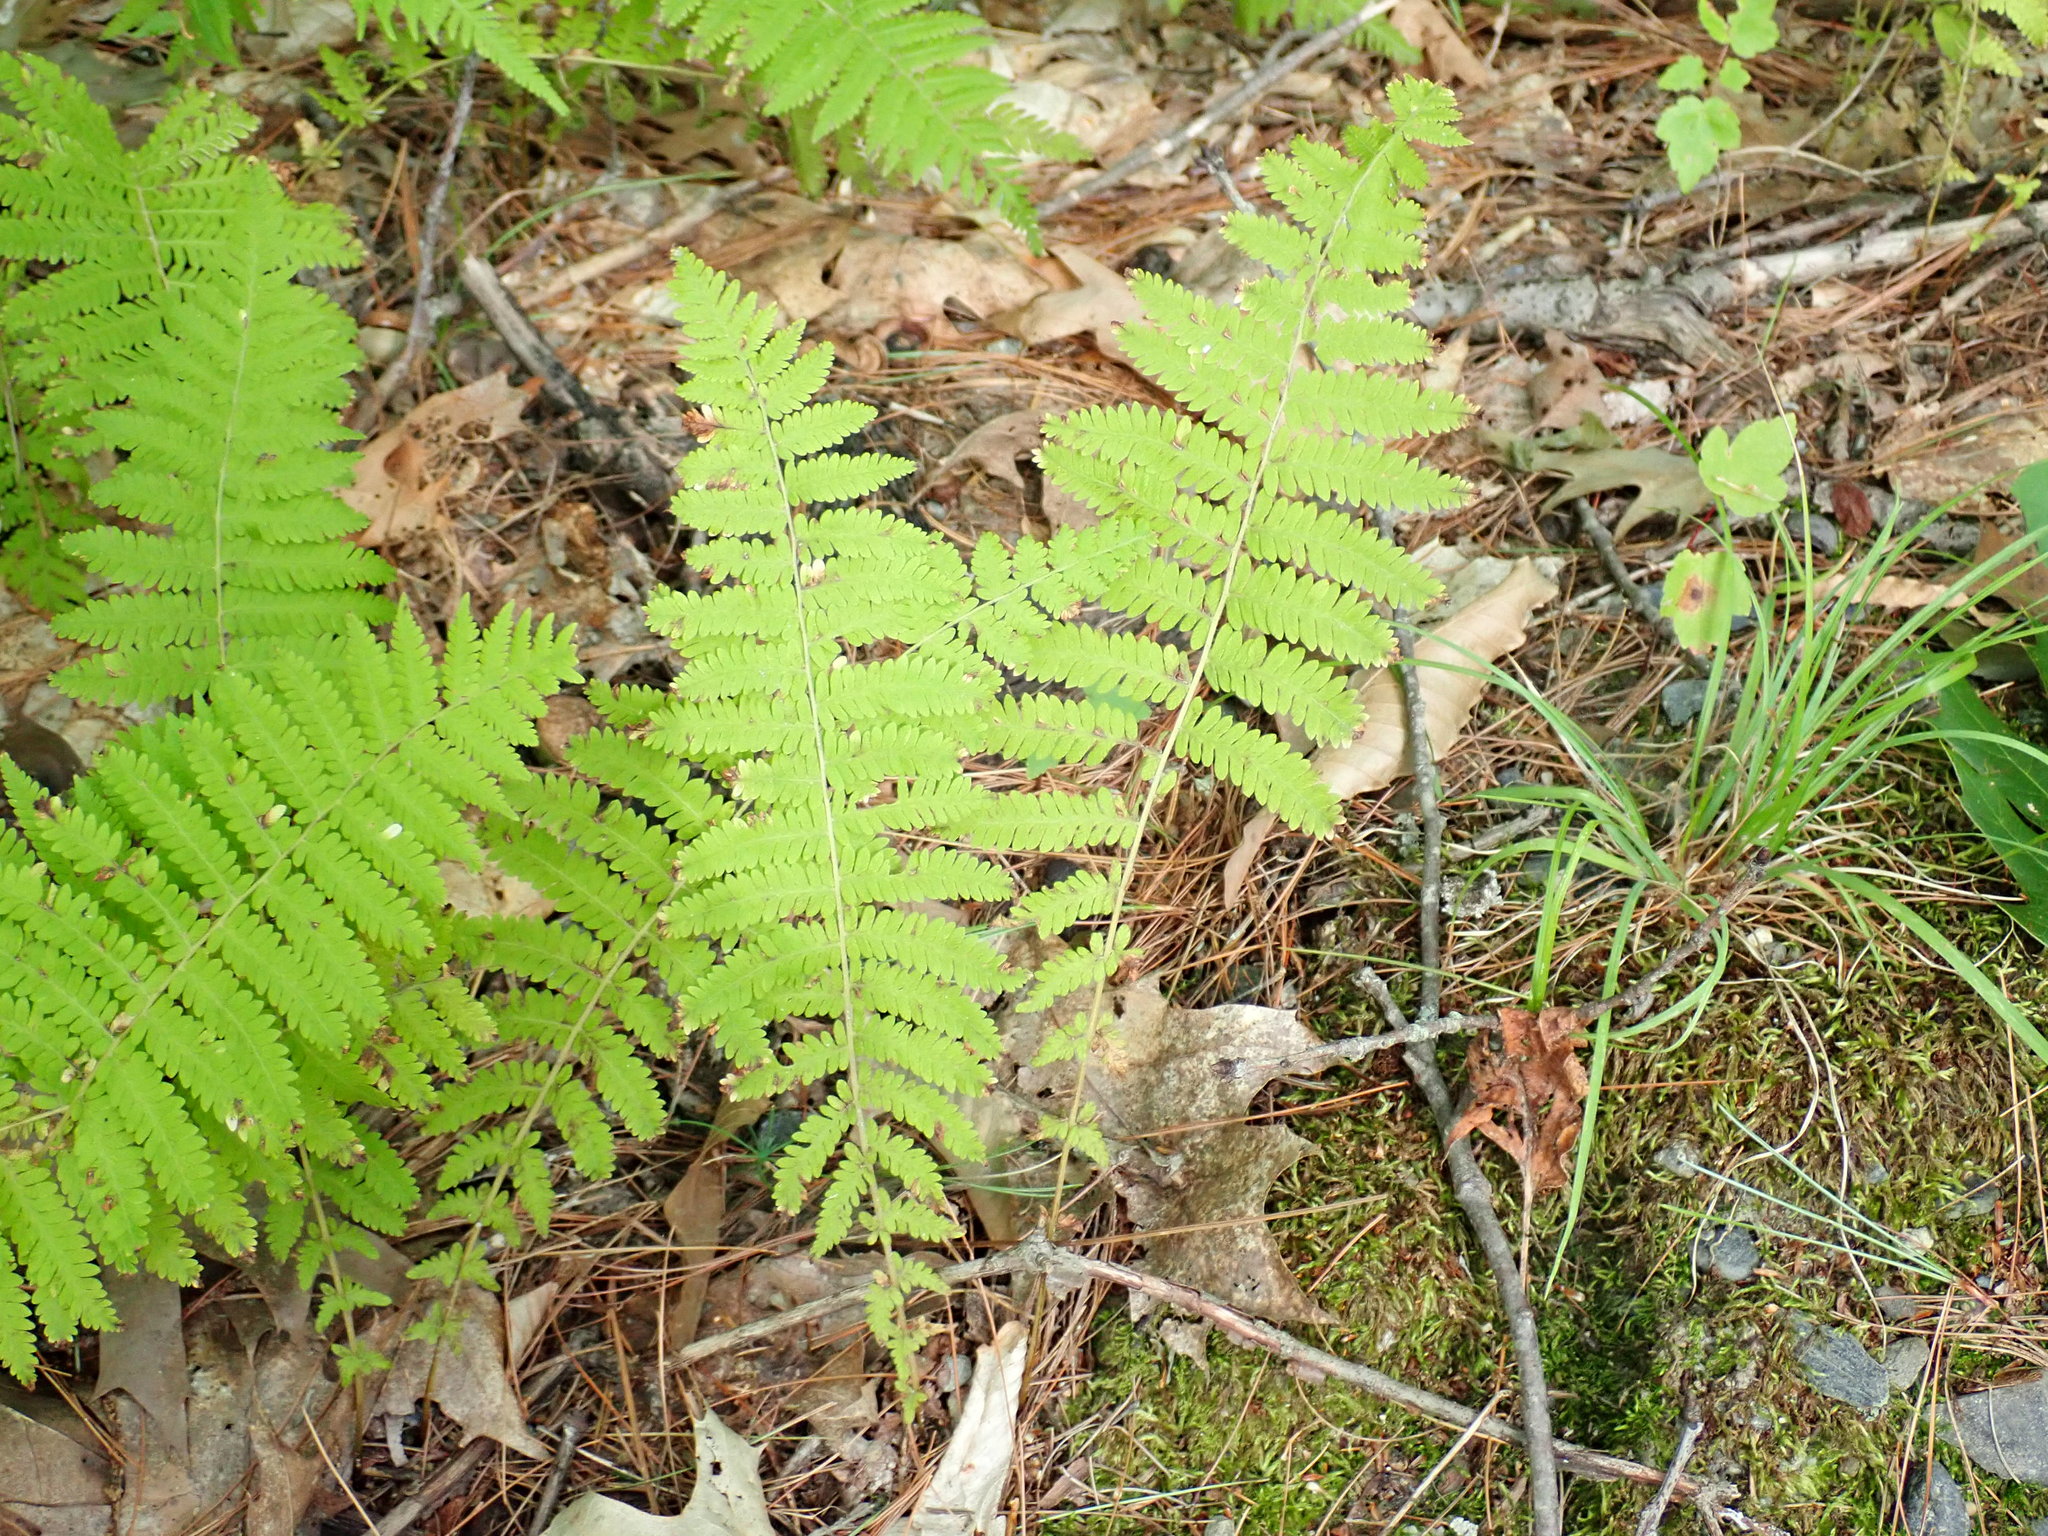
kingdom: Plantae
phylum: Tracheophyta
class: Polypodiopsida
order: Polypodiales
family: Thelypteridaceae
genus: Amauropelta
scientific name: Amauropelta noveboracensis
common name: New york fern
